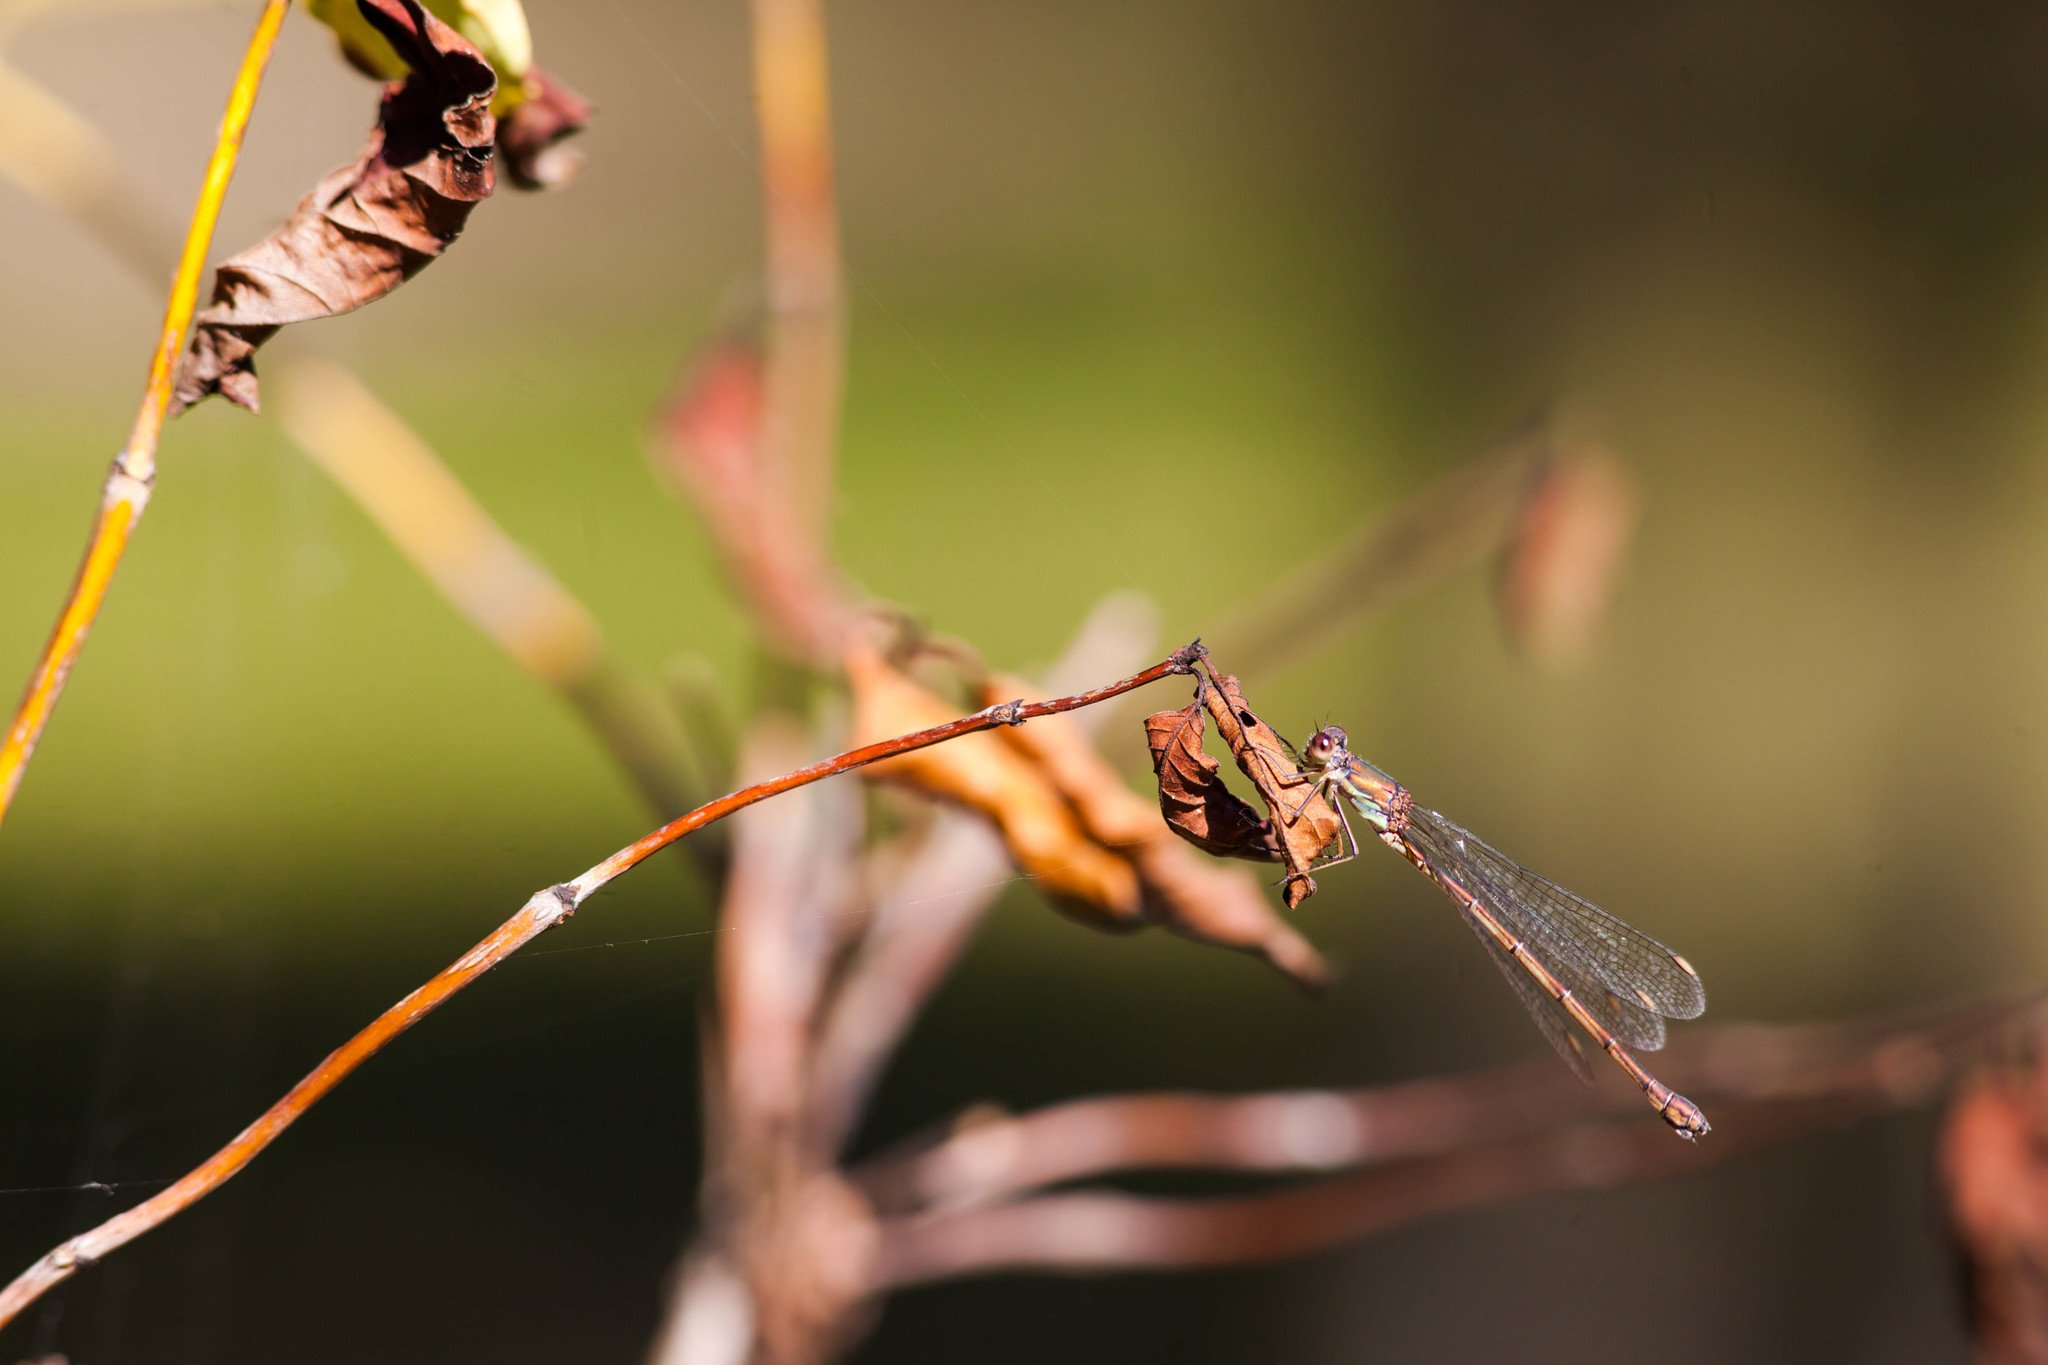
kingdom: Animalia
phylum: Arthropoda
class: Insecta
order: Odonata
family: Lestidae
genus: Chalcolestes
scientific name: Chalcolestes viridis
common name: Green emerald damselfly
